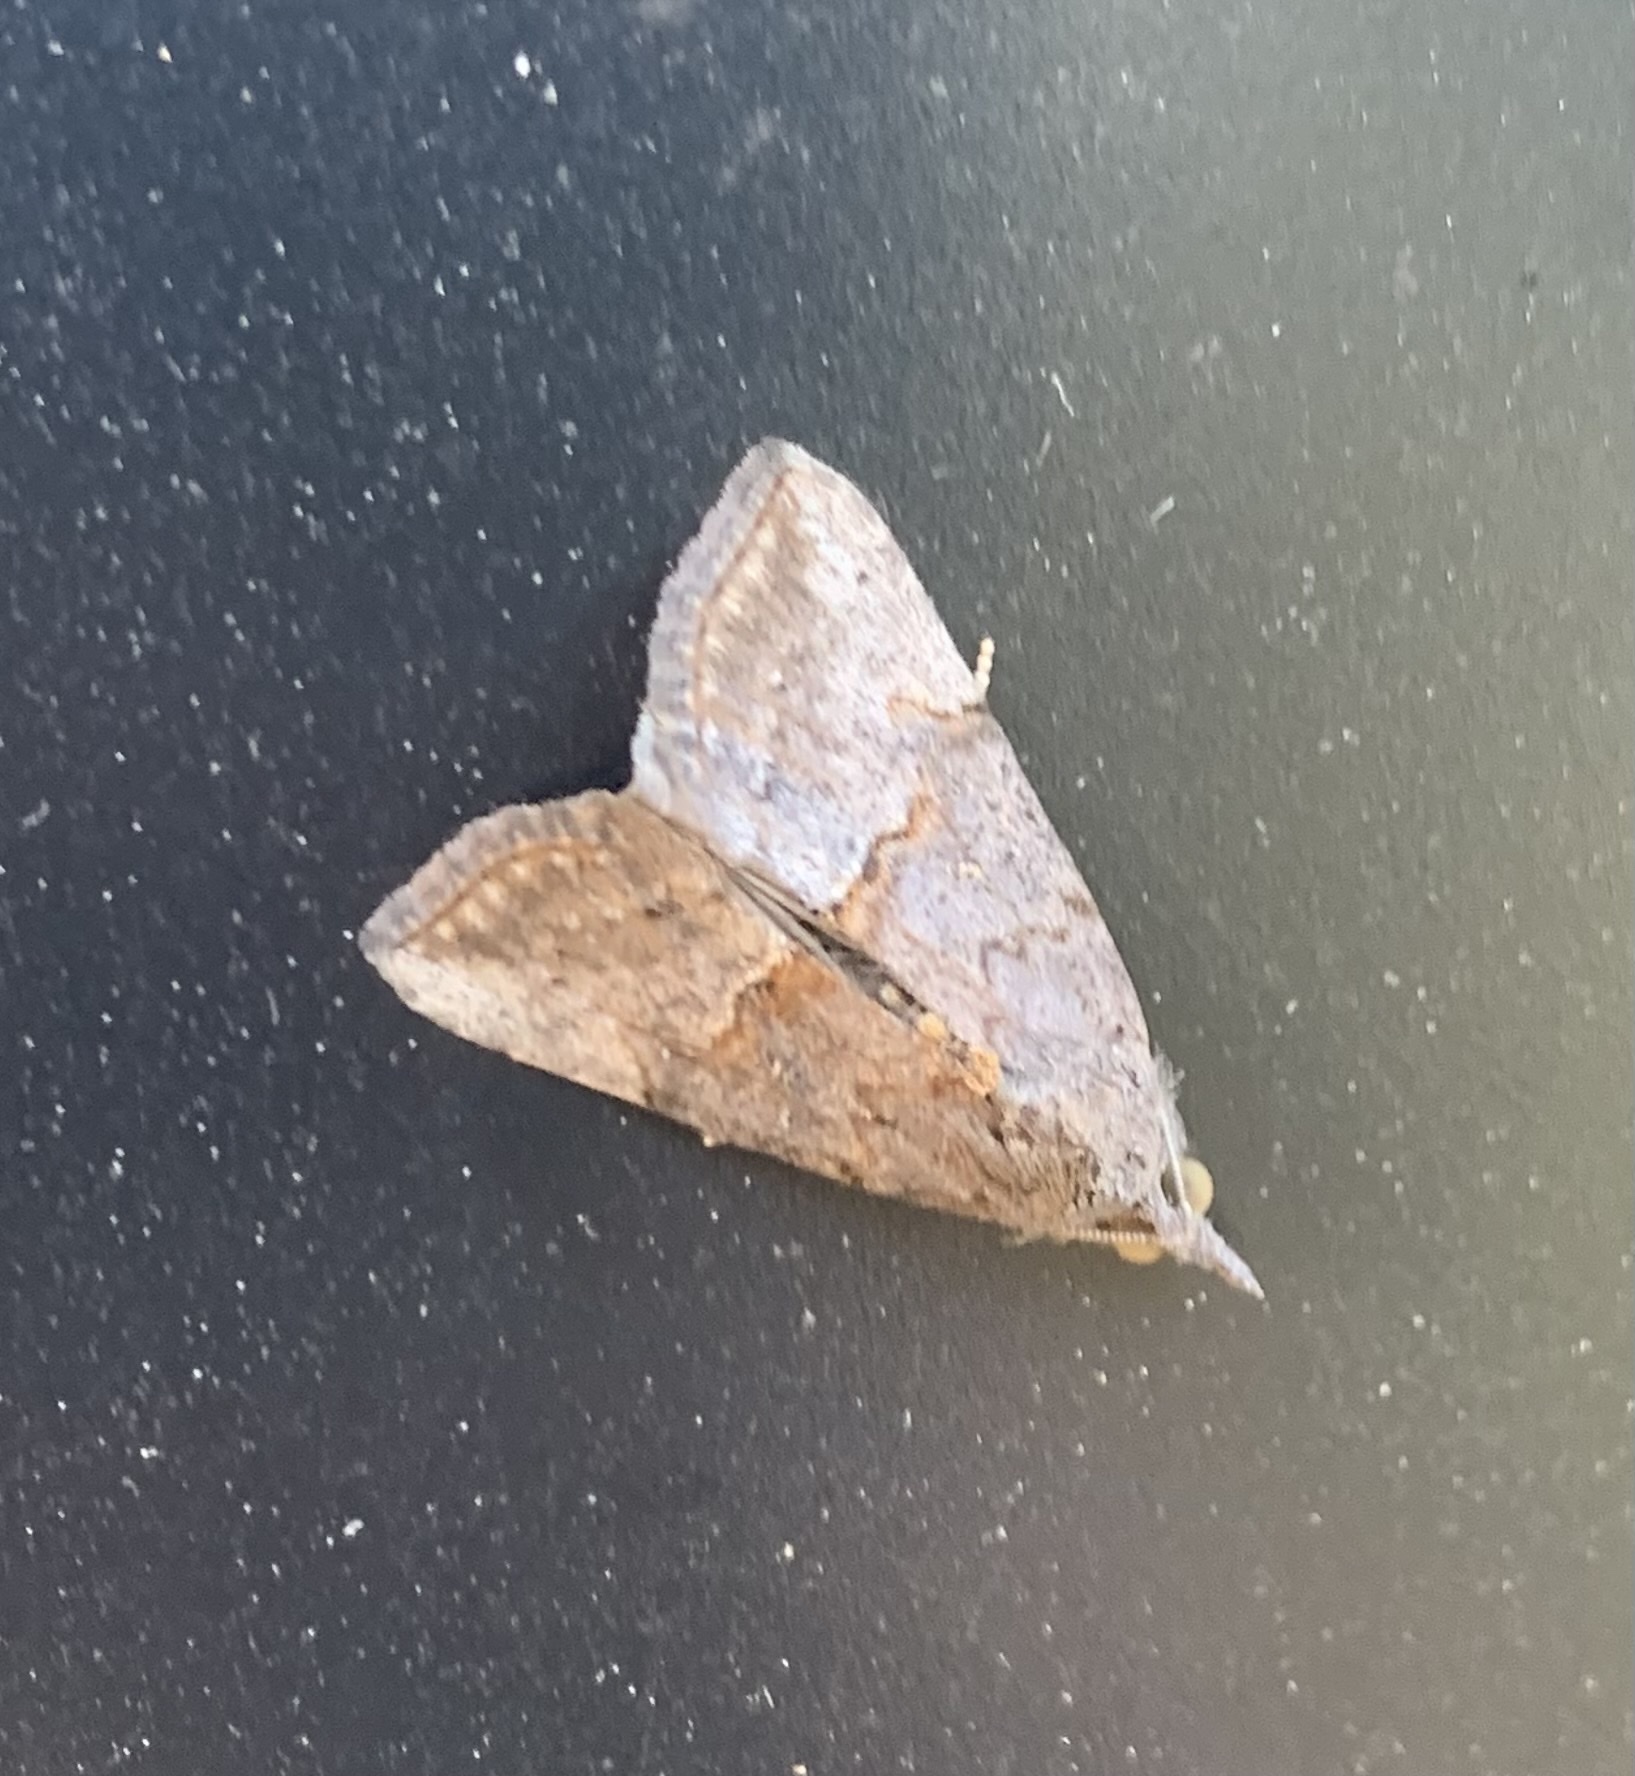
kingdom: Animalia
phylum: Arthropoda
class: Insecta
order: Lepidoptera
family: Erebidae
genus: Hypena
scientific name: Hypena scabra
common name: Green cloverworm
